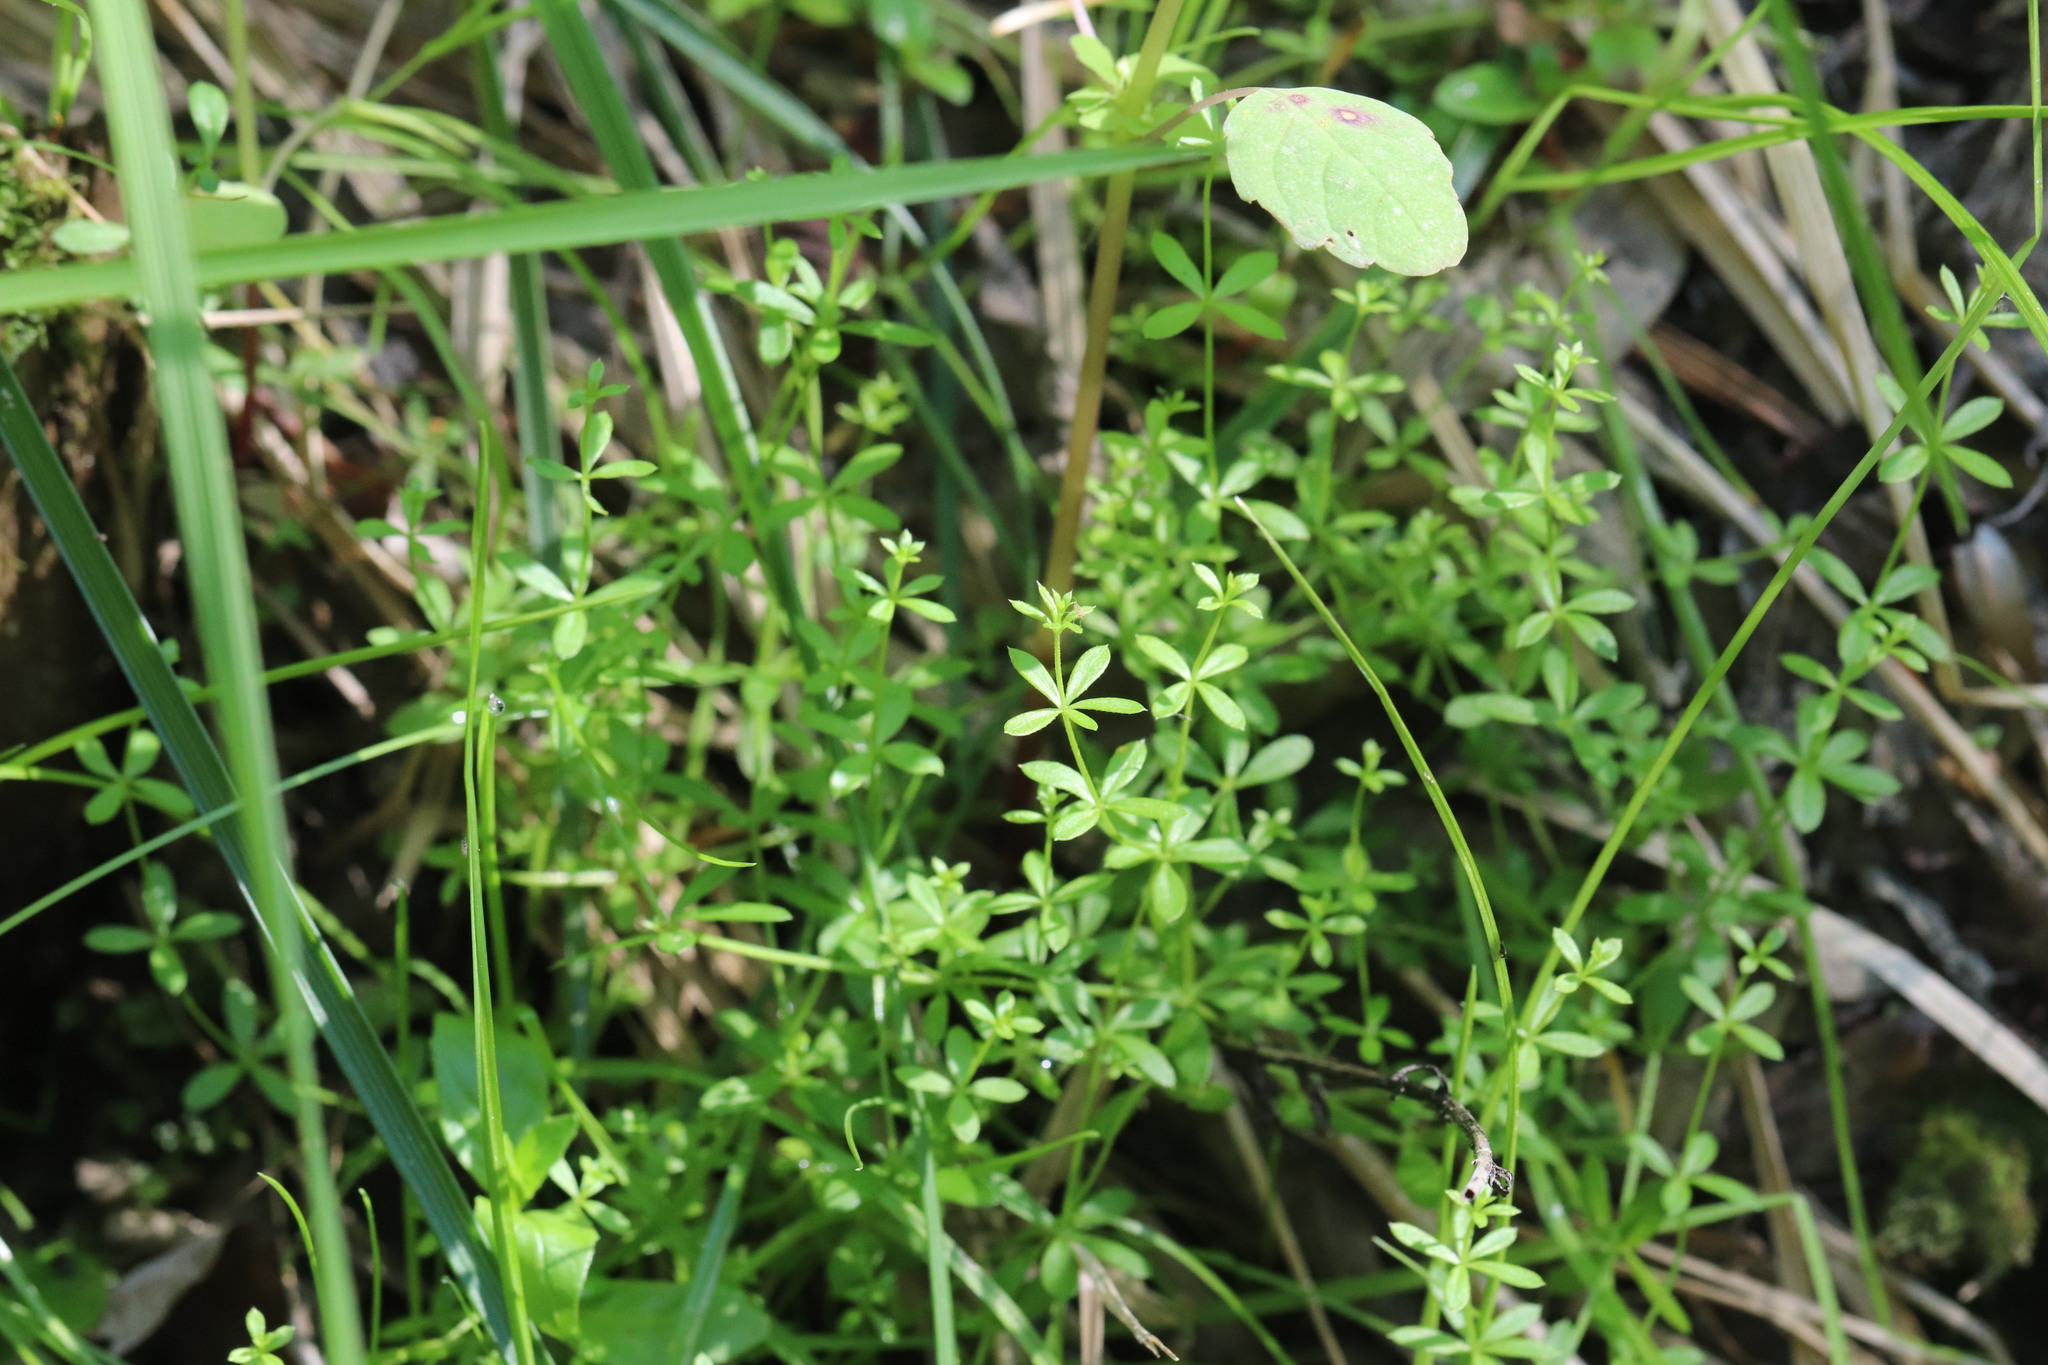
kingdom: Plantae
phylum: Tracheophyta
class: Magnoliopsida
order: Gentianales
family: Rubiaceae
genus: Galium
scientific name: Galium uliginosum
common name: Fen bedstraw
